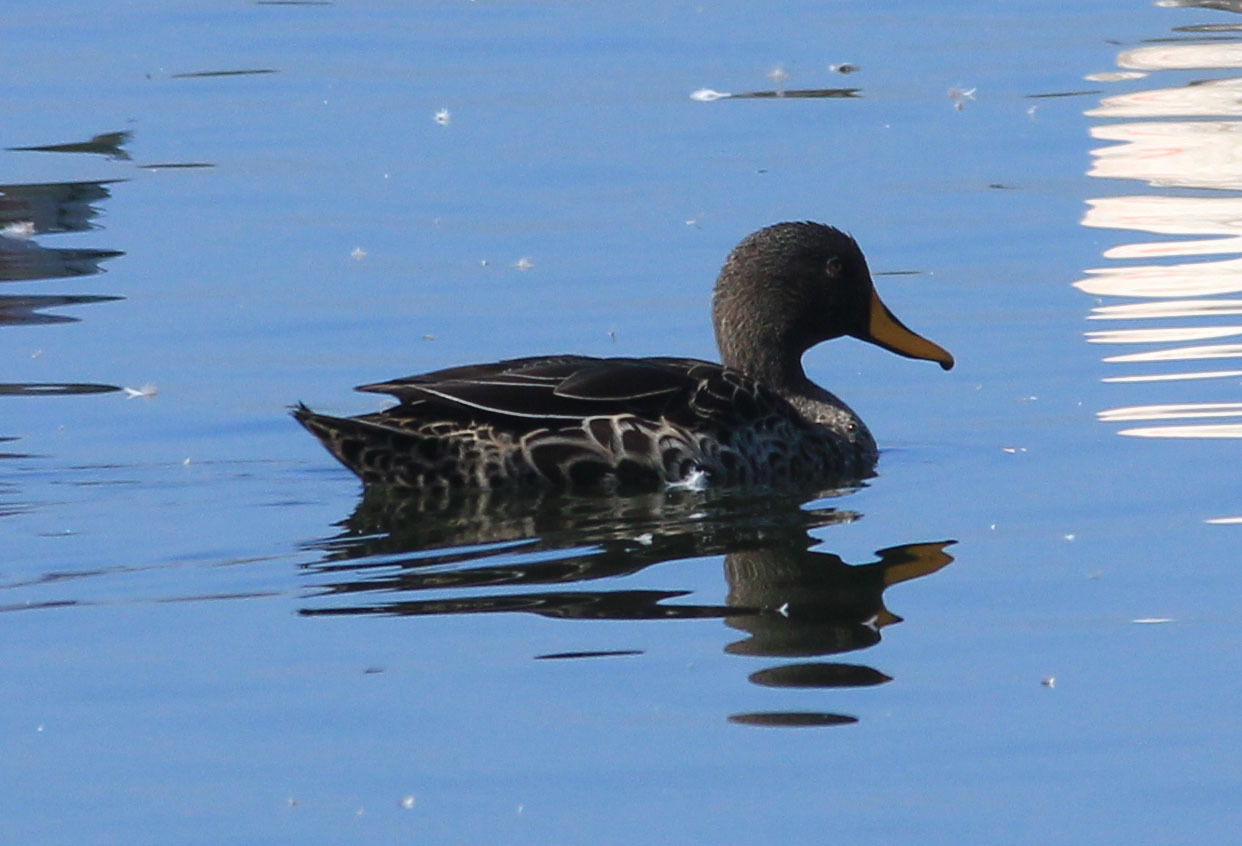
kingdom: Animalia
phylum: Chordata
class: Aves
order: Anseriformes
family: Anatidae
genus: Anas
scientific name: Anas undulata
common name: Yellow-billed duck
